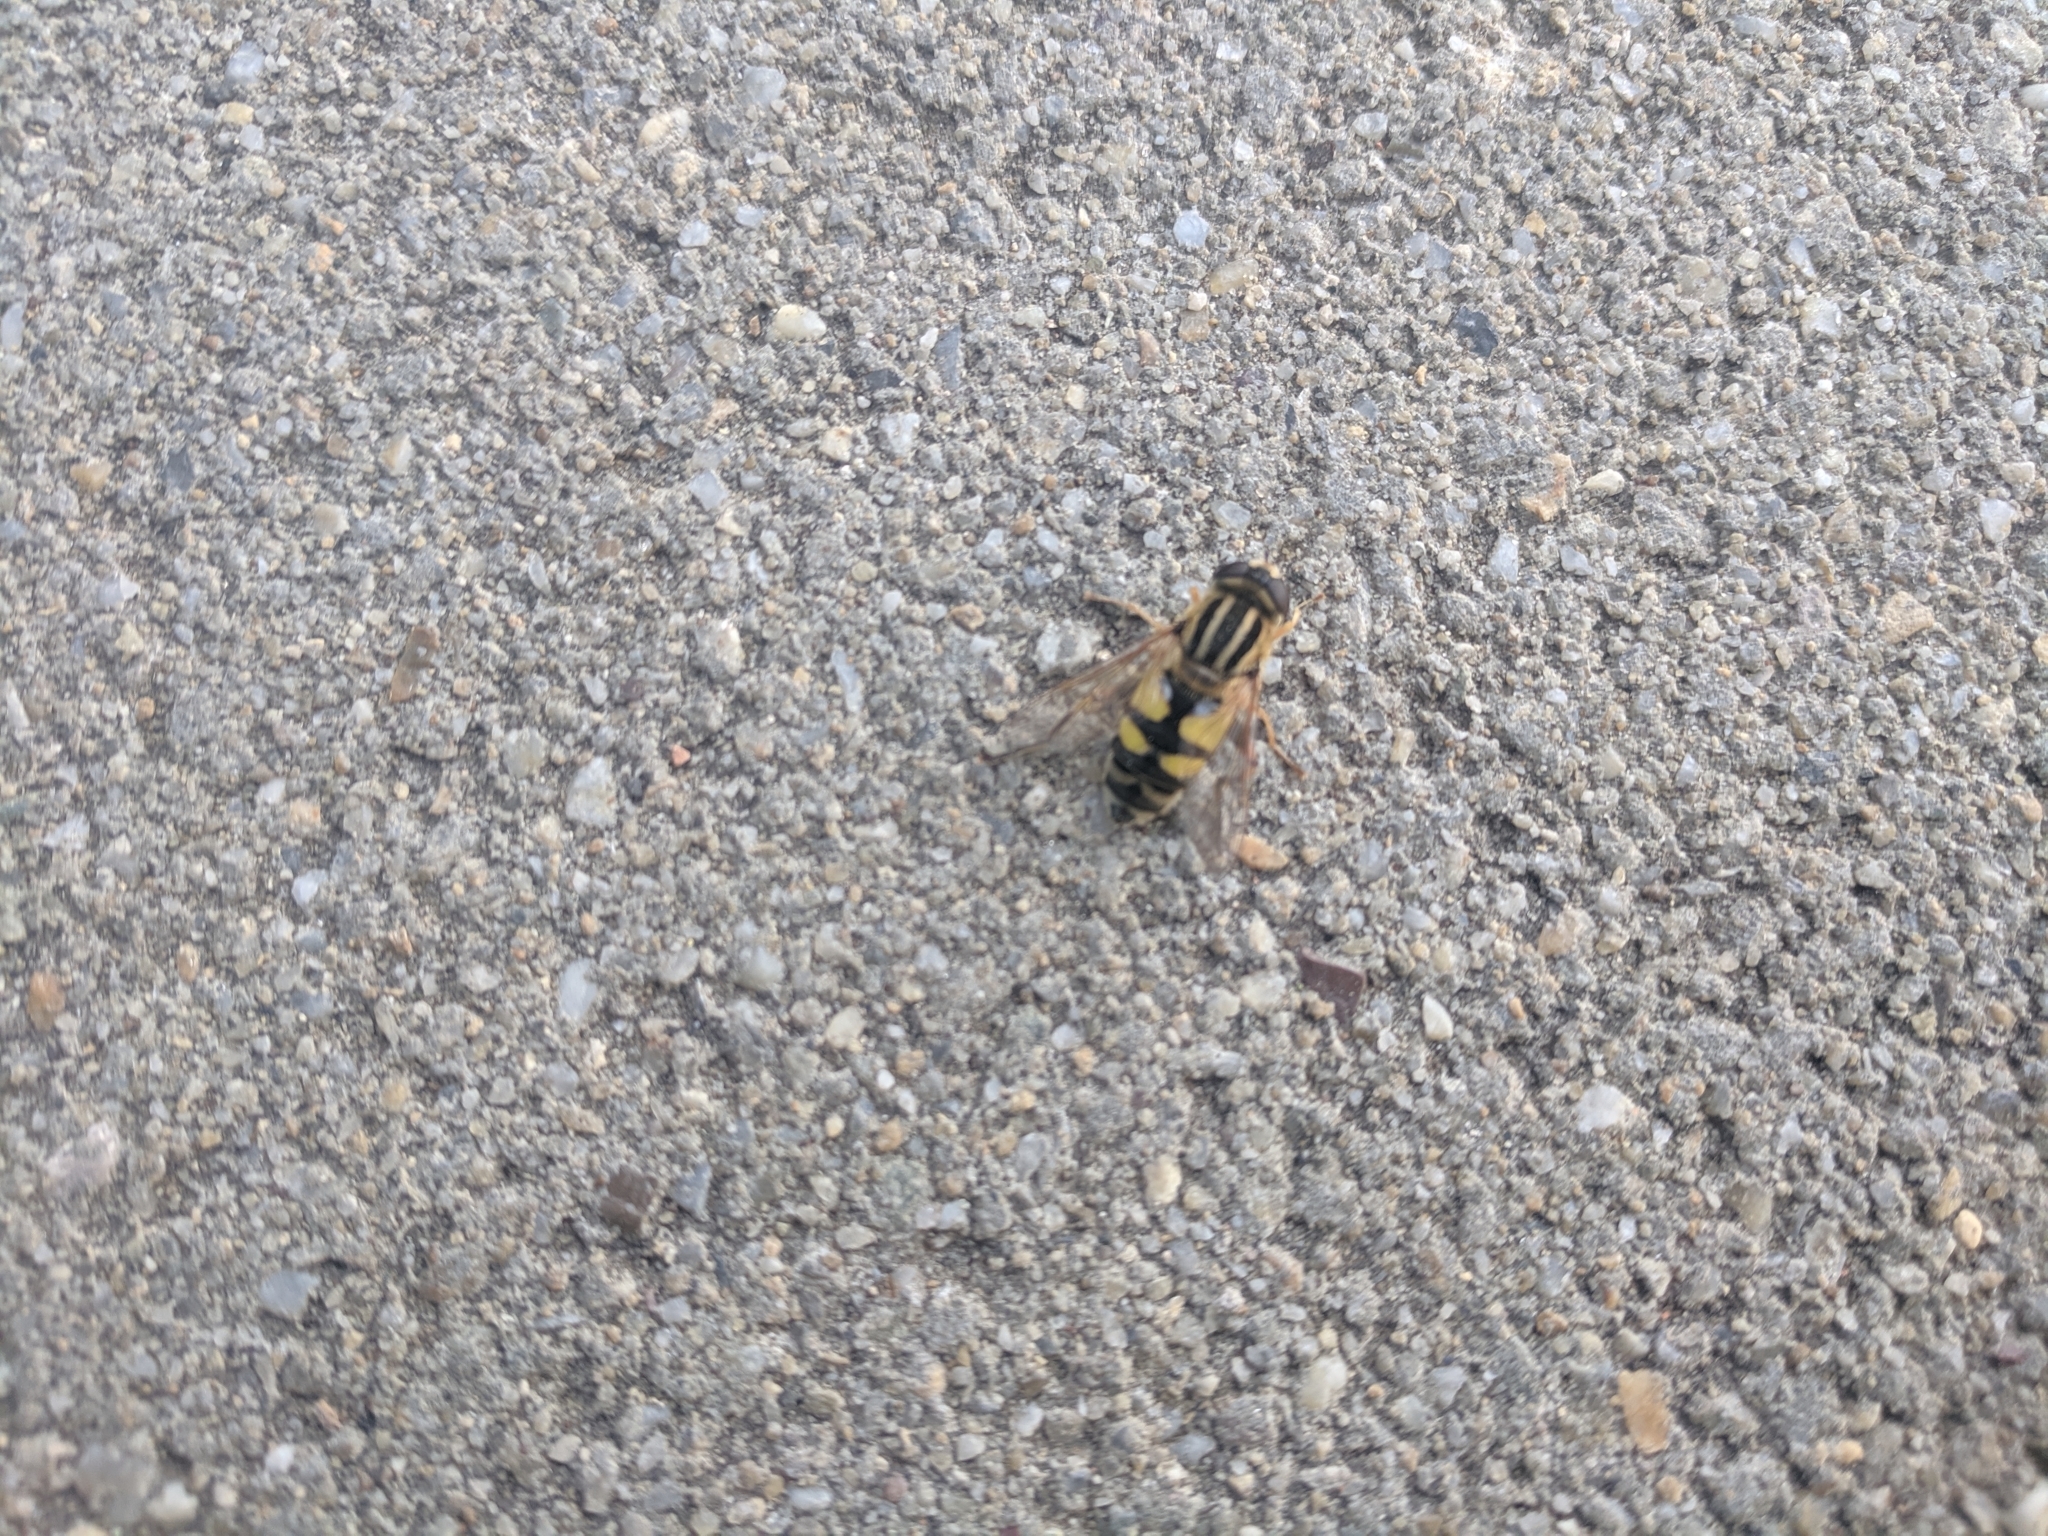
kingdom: Animalia
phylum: Arthropoda
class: Insecta
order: Diptera
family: Syrphidae
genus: Helophilus
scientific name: Helophilus trivittatus
